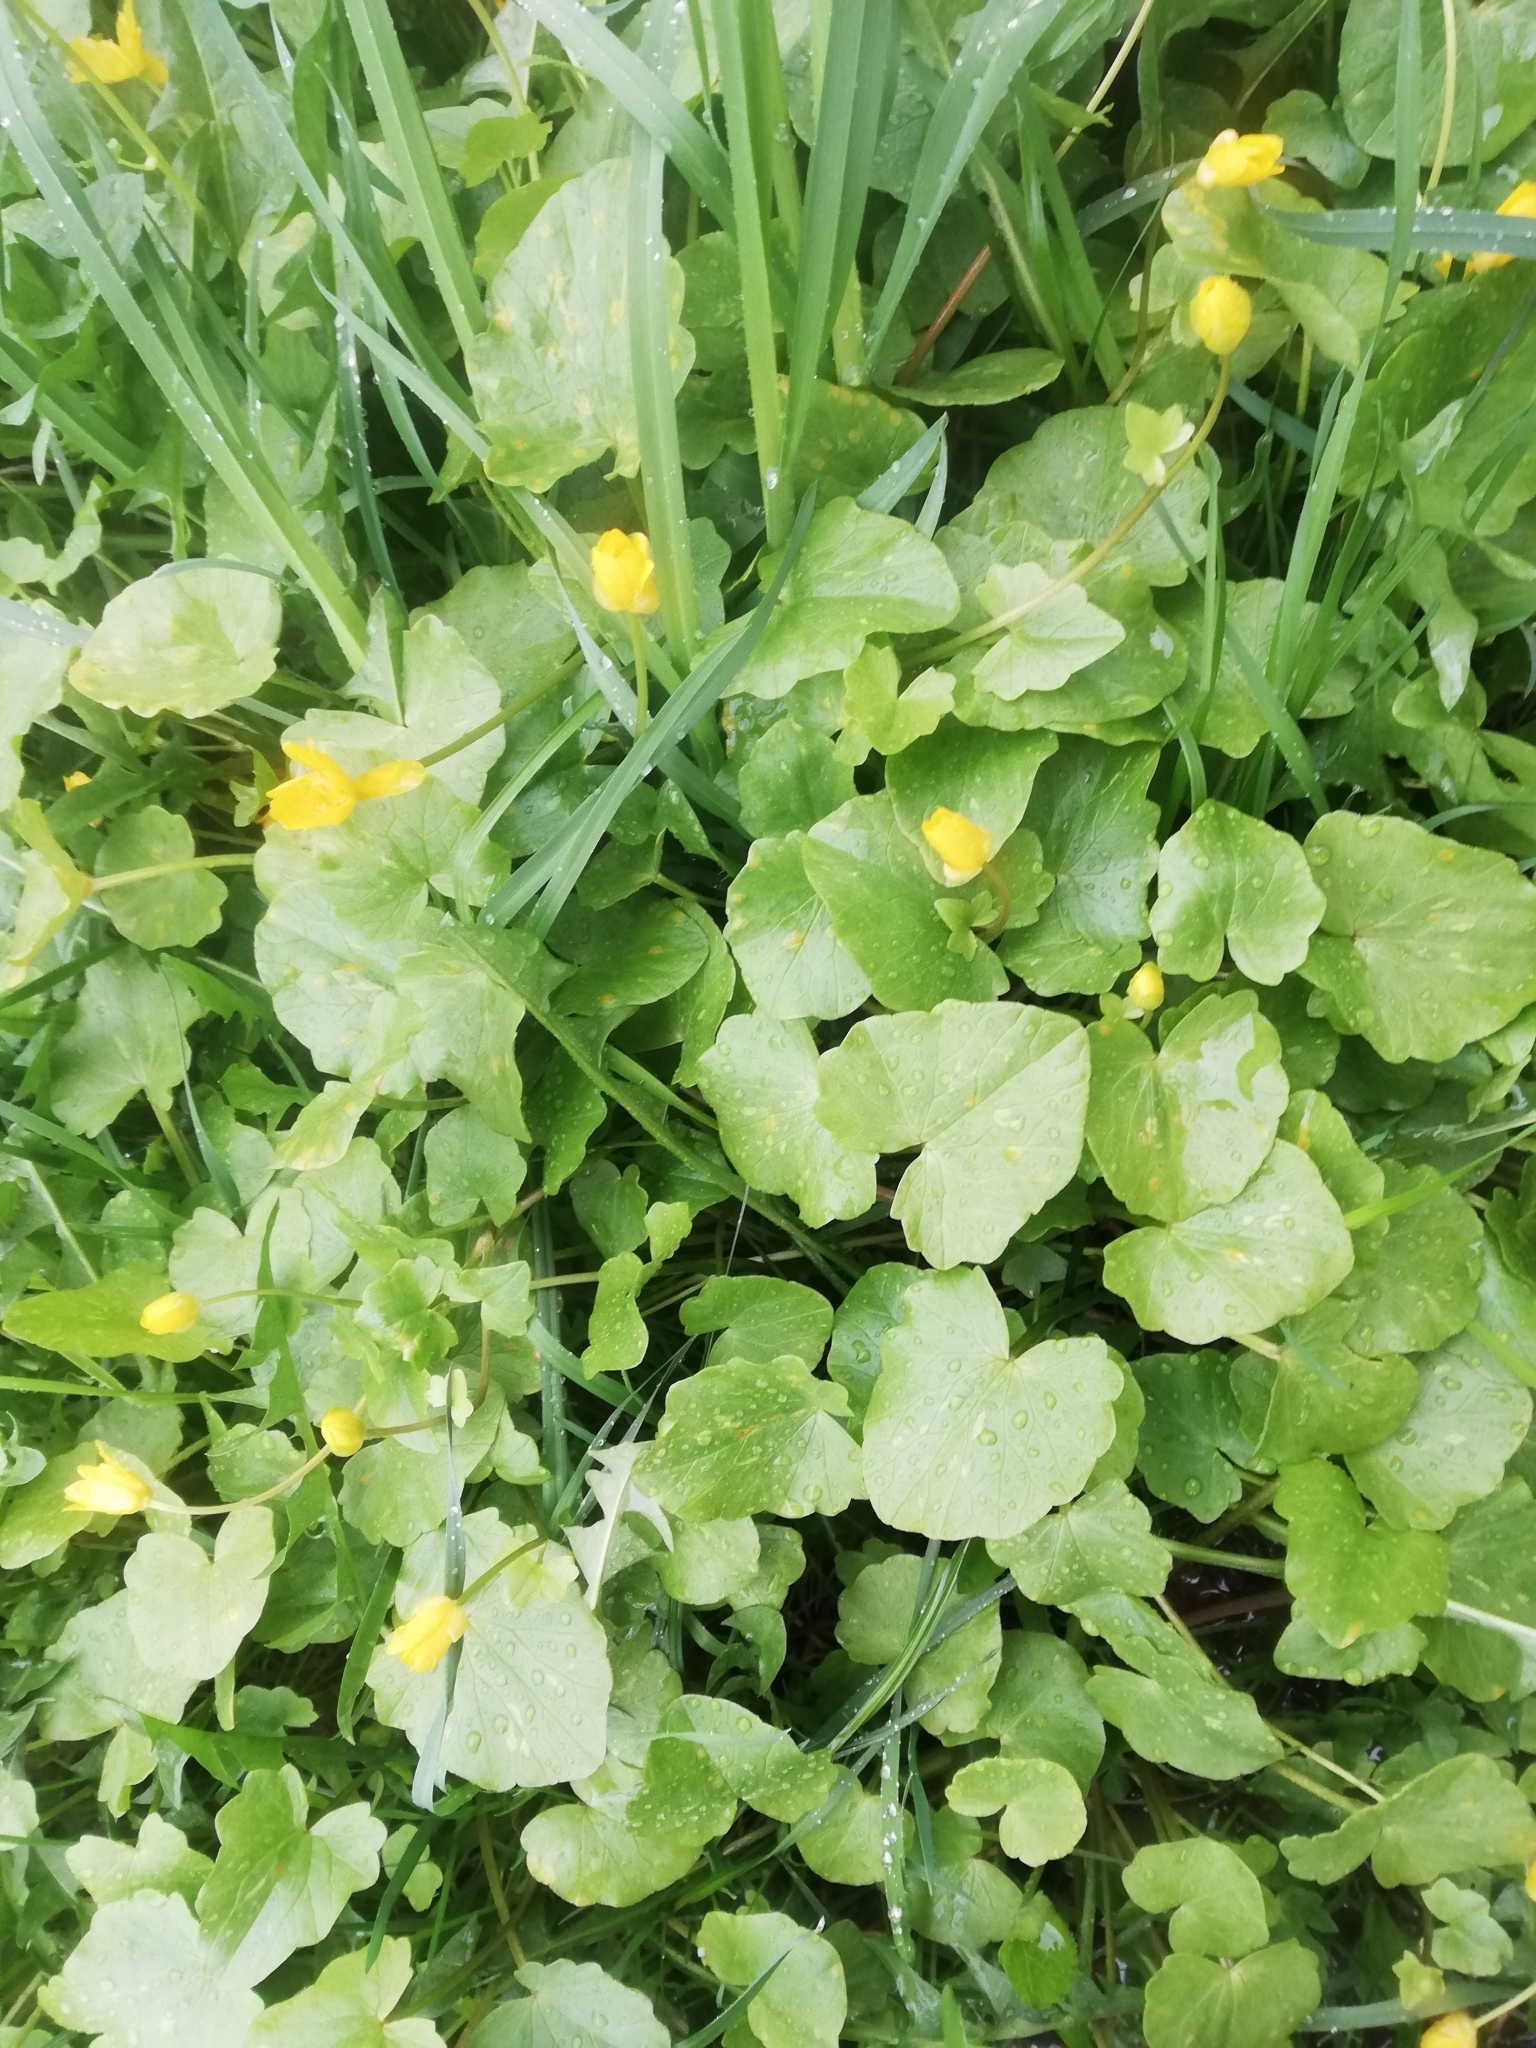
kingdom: Plantae
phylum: Tracheophyta
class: Magnoliopsida
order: Ranunculales
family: Ranunculaceae
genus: Ficaria
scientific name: Ficaria verna
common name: Lesser celandine
